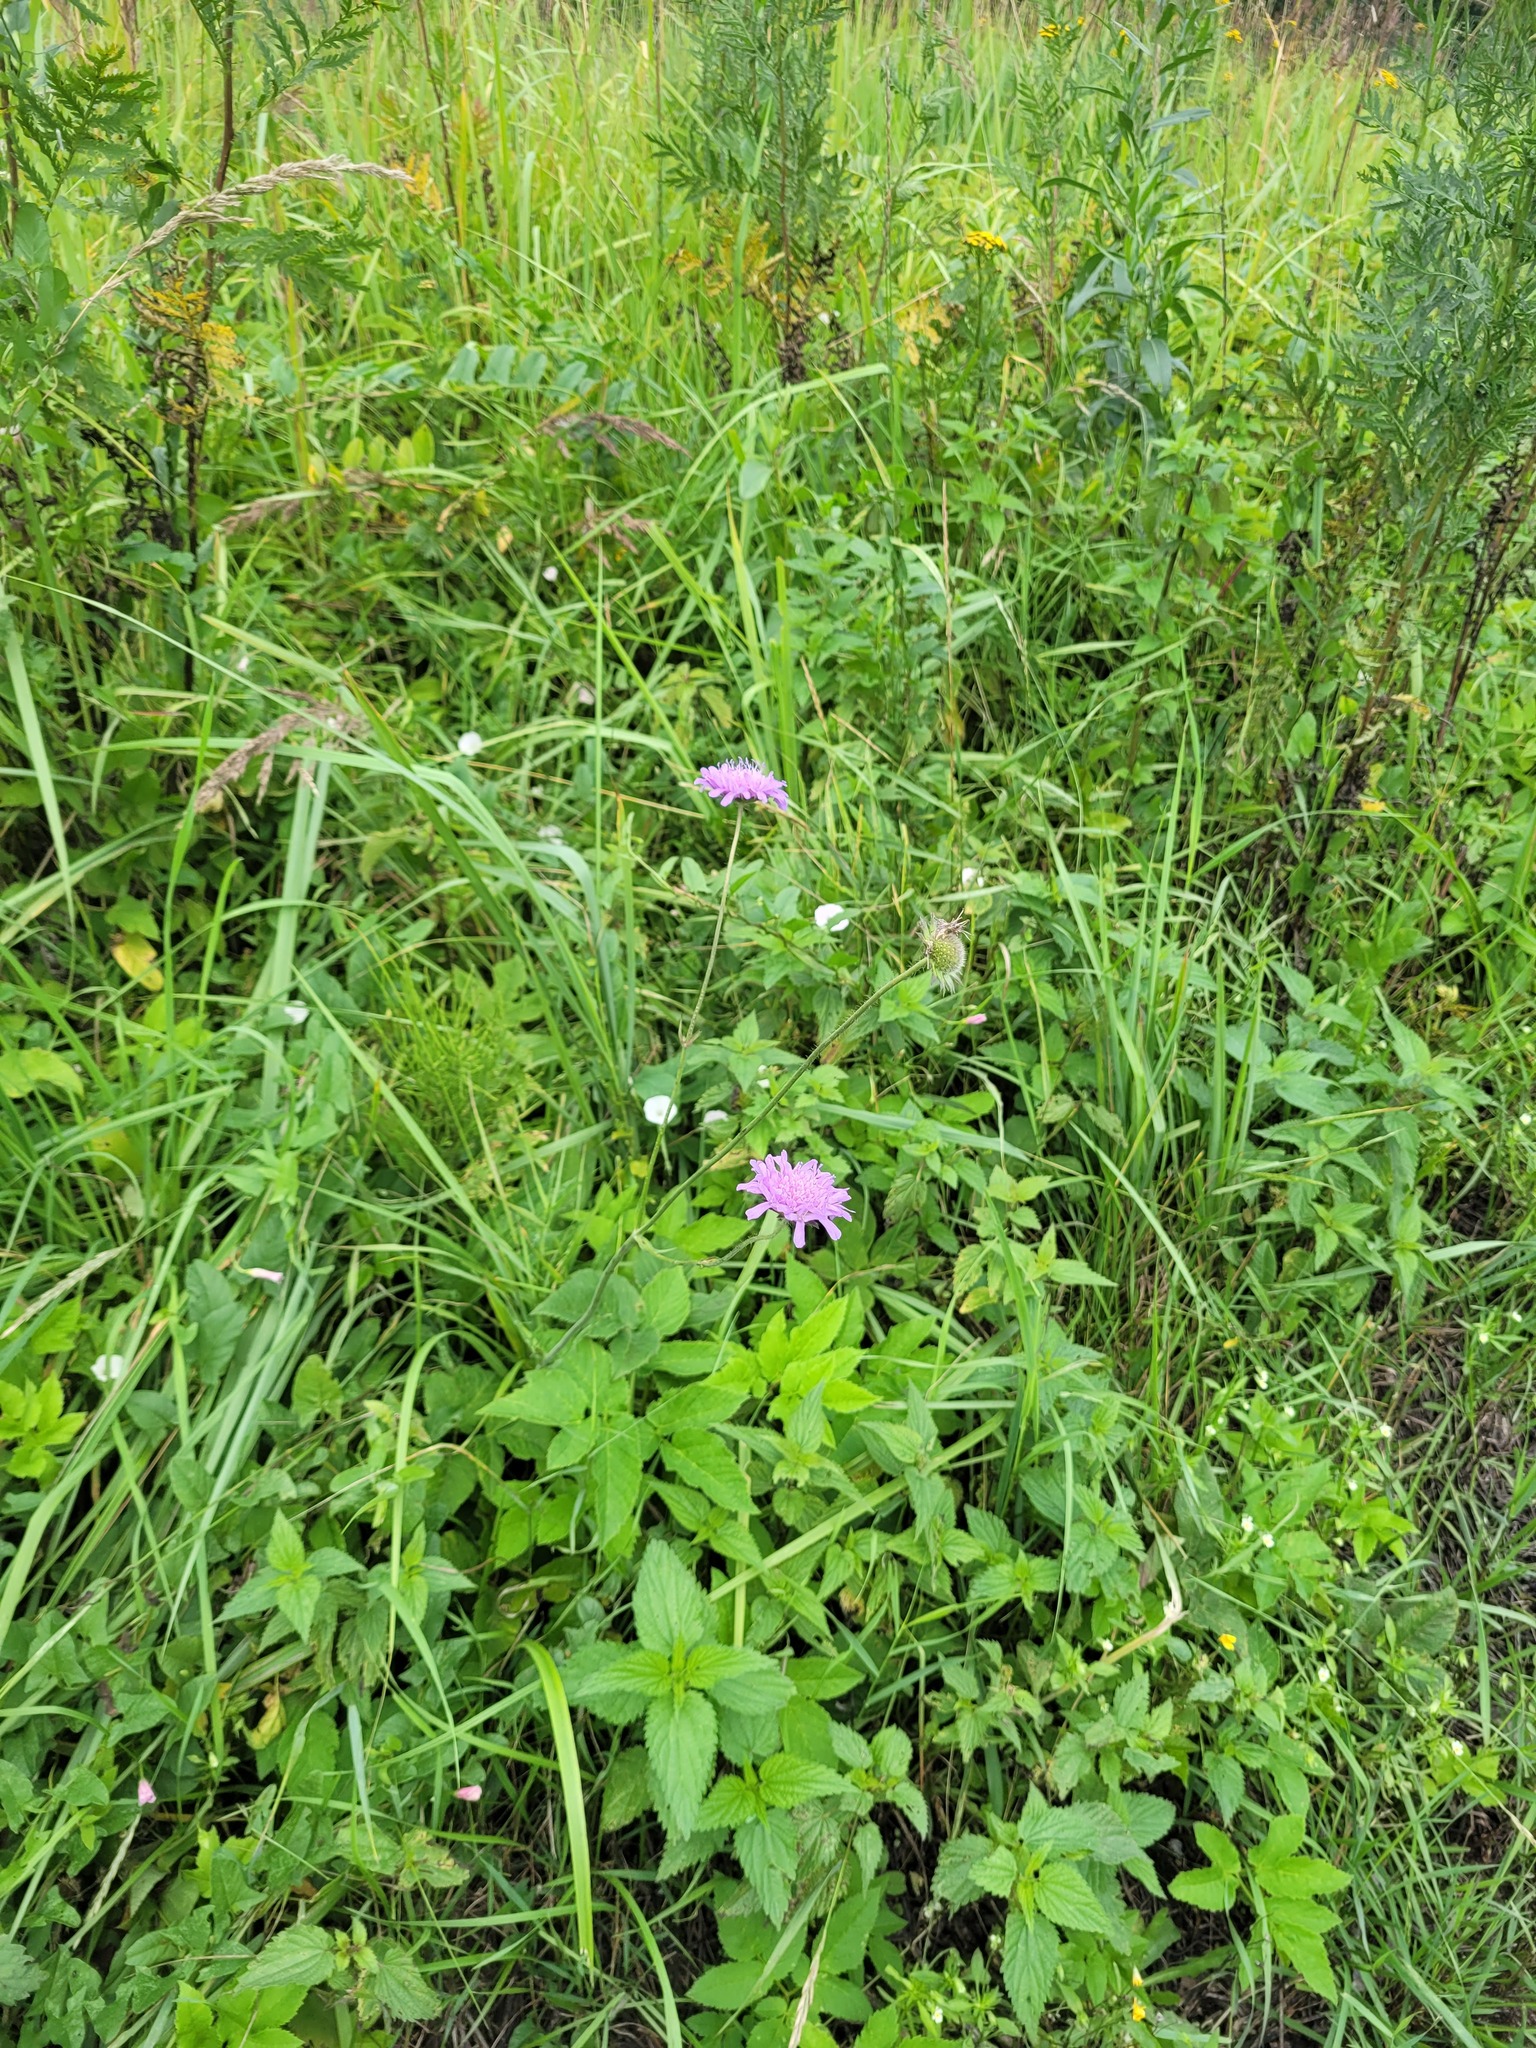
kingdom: Plantae
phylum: Tracheophyta
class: Magnoliopsida
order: Dipsacales
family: Caprifoliaceae
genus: Knautia
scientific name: Knautia arvensis
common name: Field scabiosa
